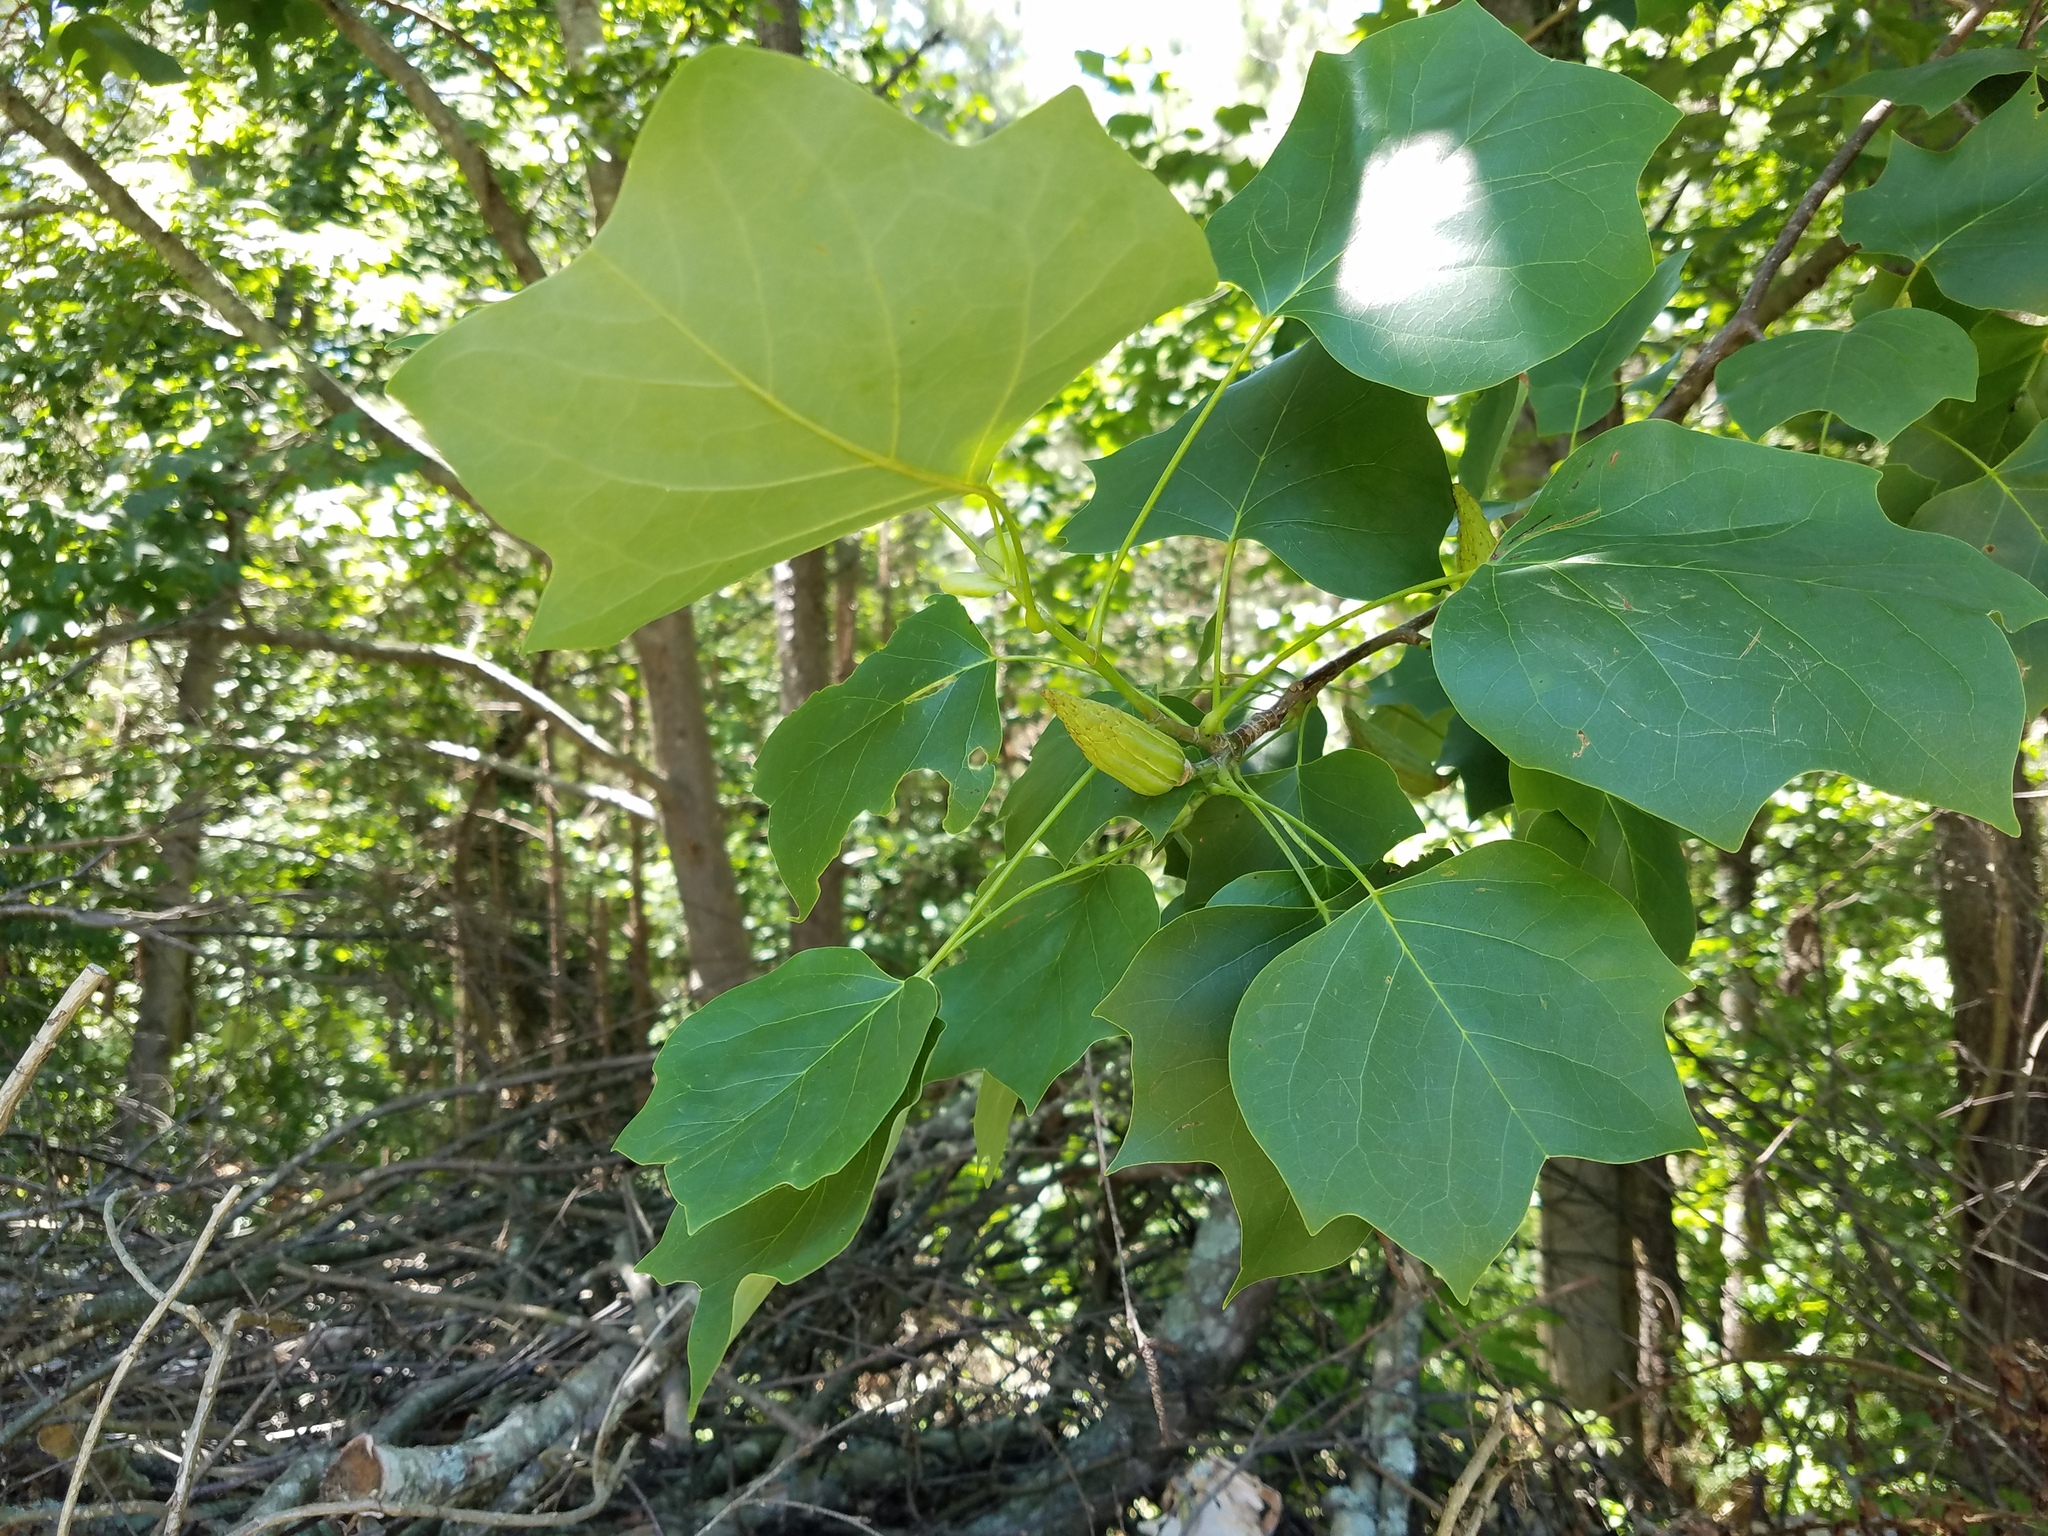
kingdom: Plantae
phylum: Tracheophyta
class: Magnoliopsida
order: Magnoliales
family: Magnoliaceae
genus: Liriodendron
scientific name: Liriodendron tulipifera
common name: Tulip tree
